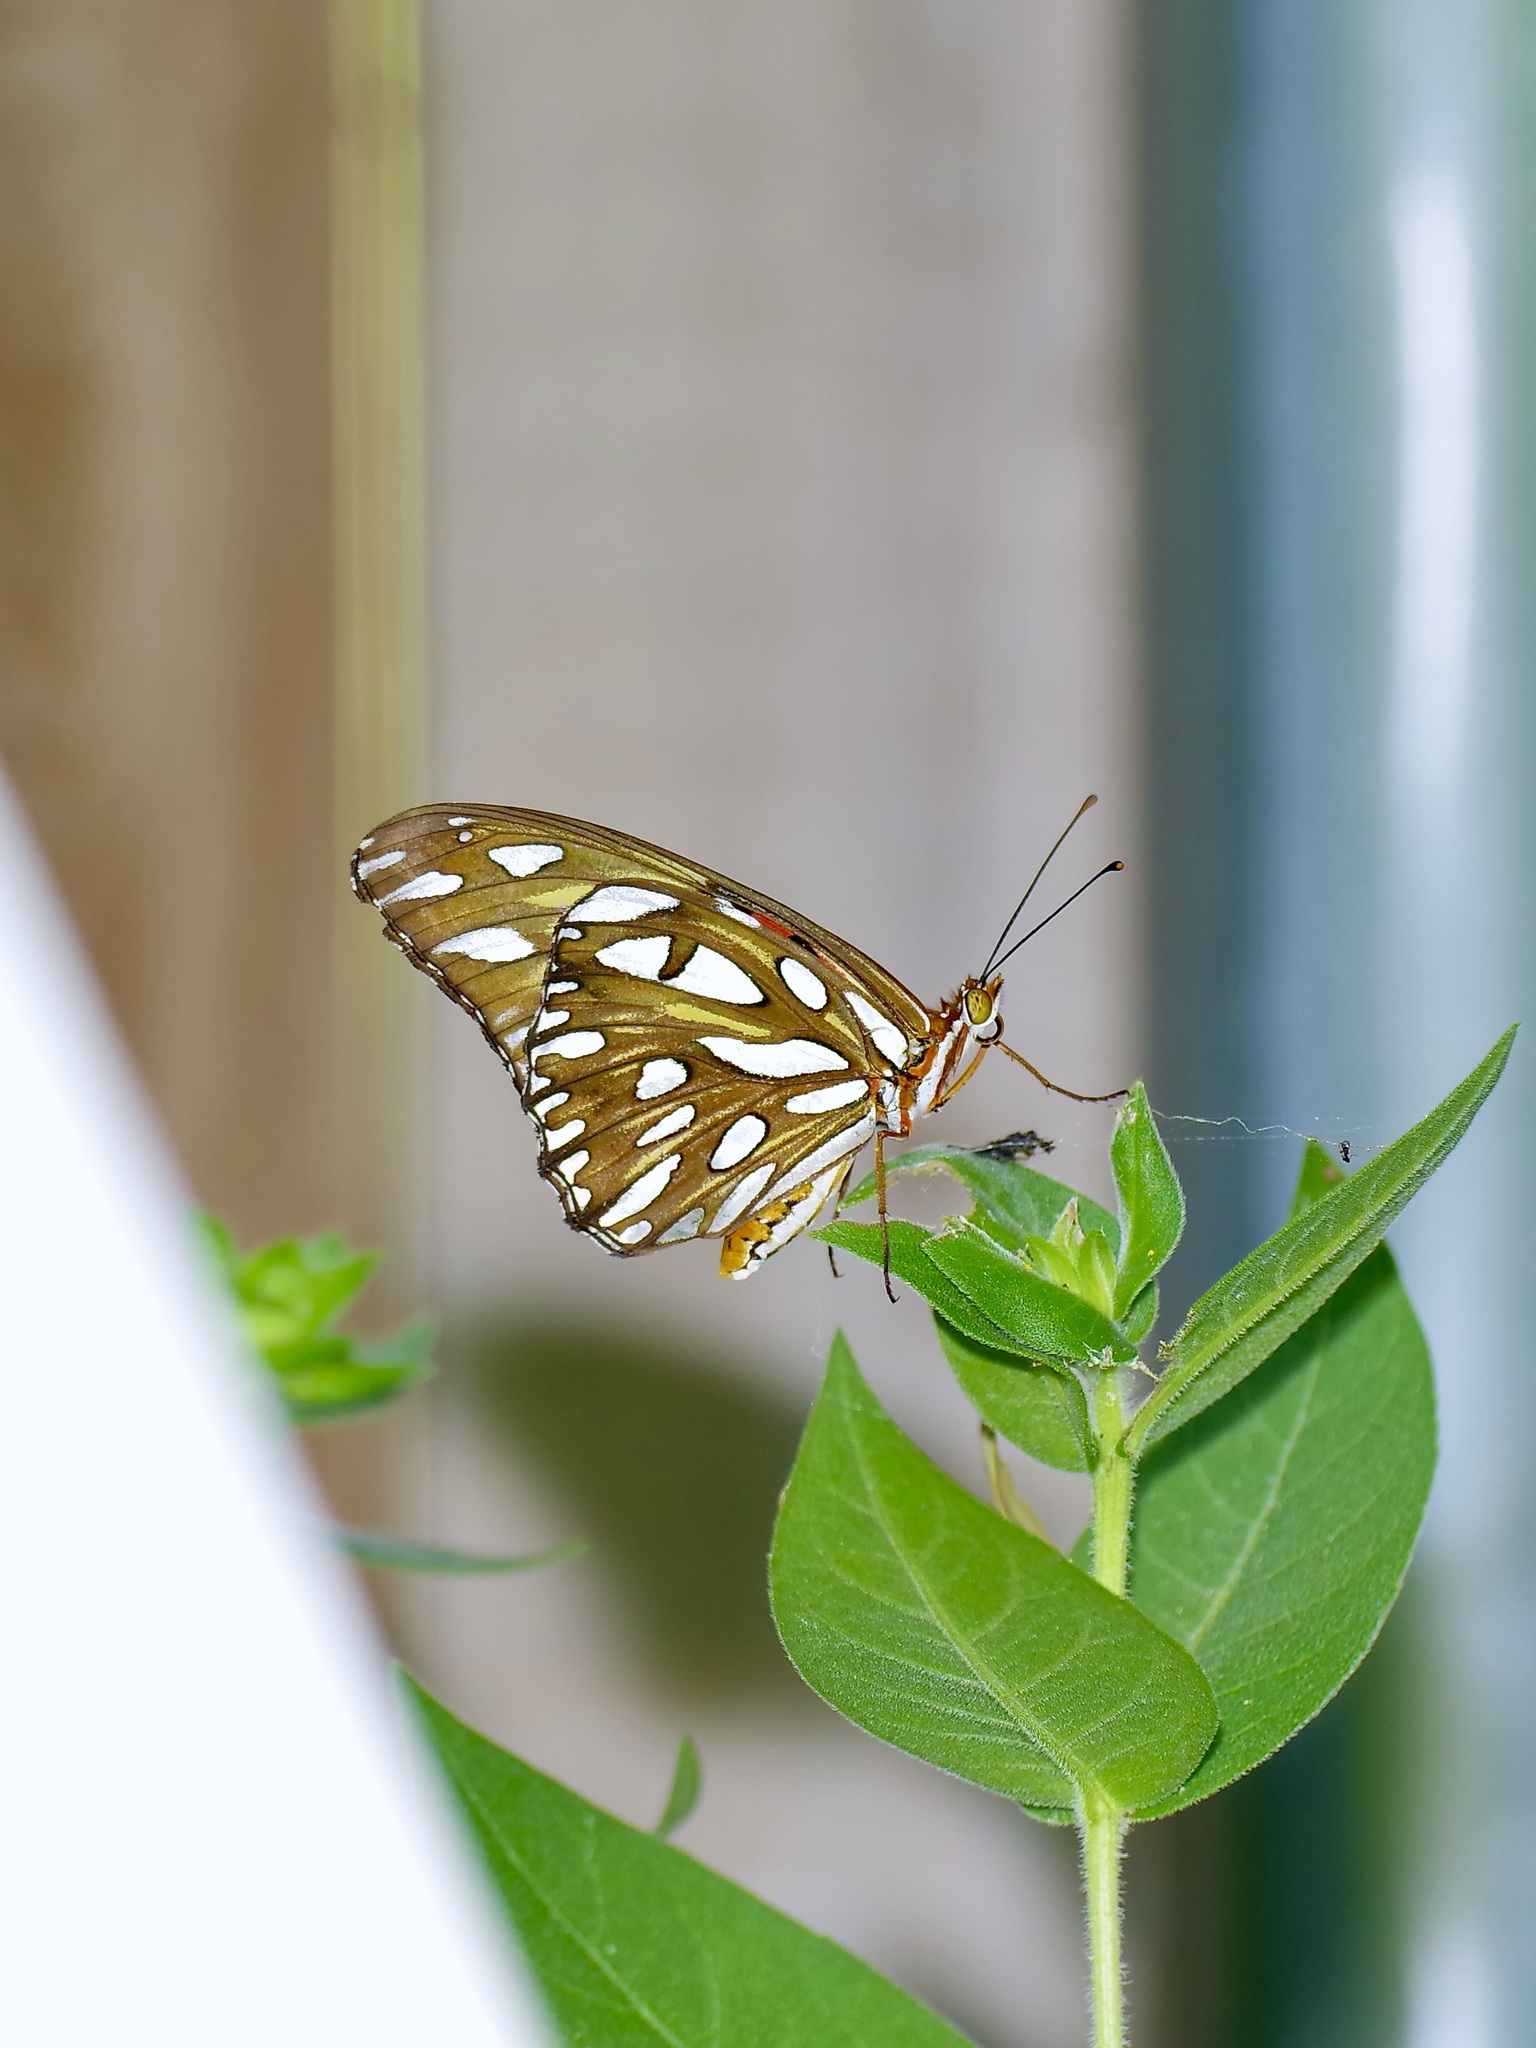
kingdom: Animalia
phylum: Arthropoda
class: Insecta
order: Lepidoptera
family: Nymphalidae
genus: Dione
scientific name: Dione vanillae
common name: Gulf fritillary
